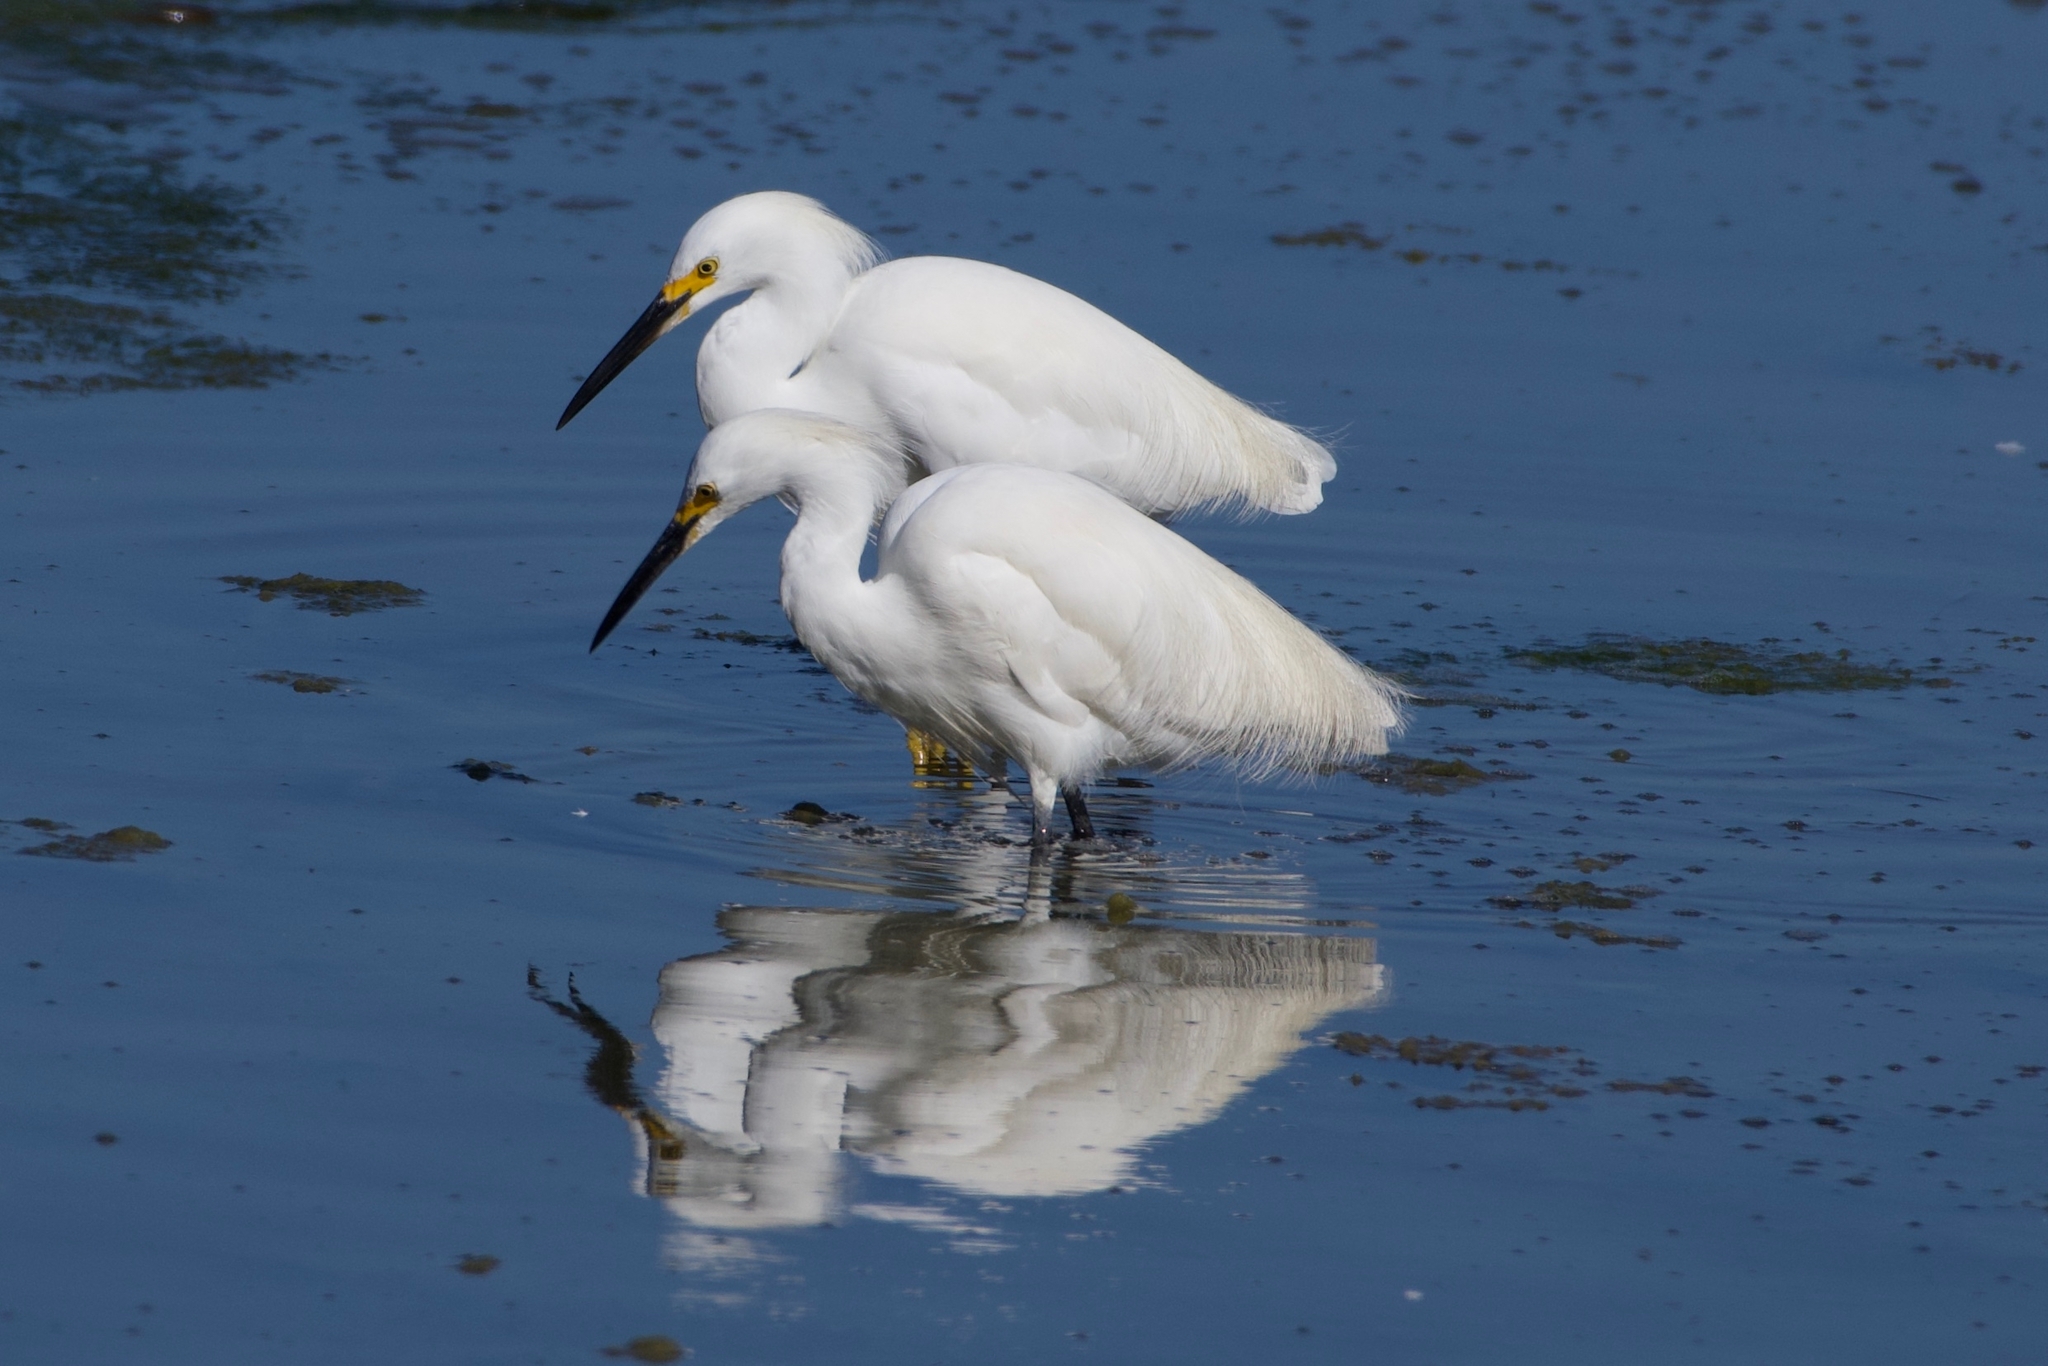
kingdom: Animalia
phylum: Chordata
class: Aves
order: Pelecaniformes
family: Ardeidae
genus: Egretta
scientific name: Egretta thula
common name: Snowy egret
